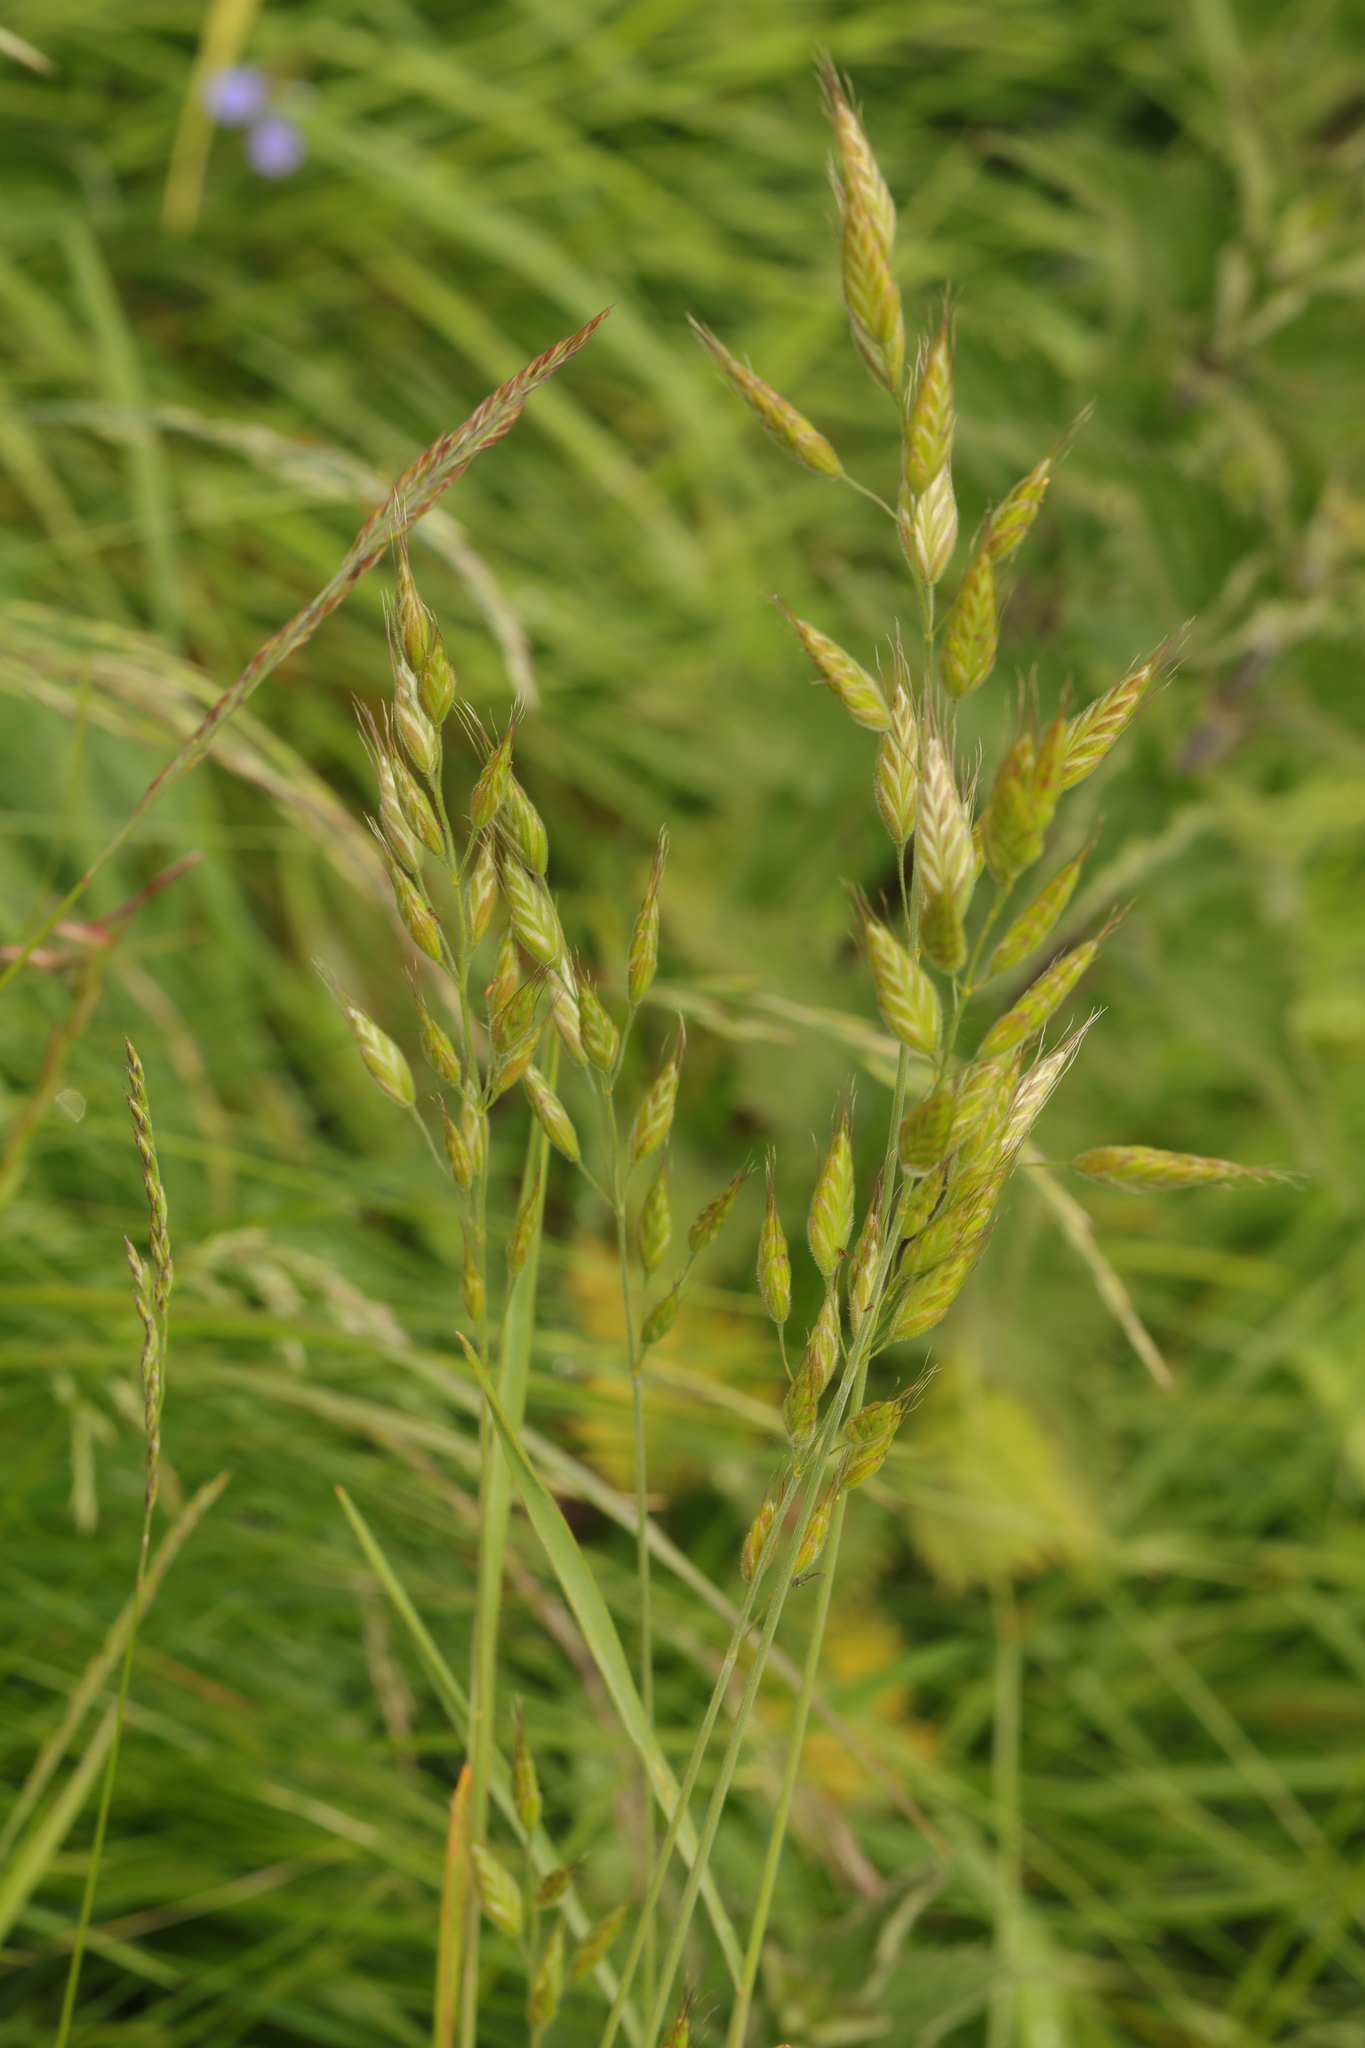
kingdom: Plantae
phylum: Tracheophyta
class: Liliopsida
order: Poales
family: Poaceae
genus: Bromus
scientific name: Bromus hordeaceus
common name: Soft brome
